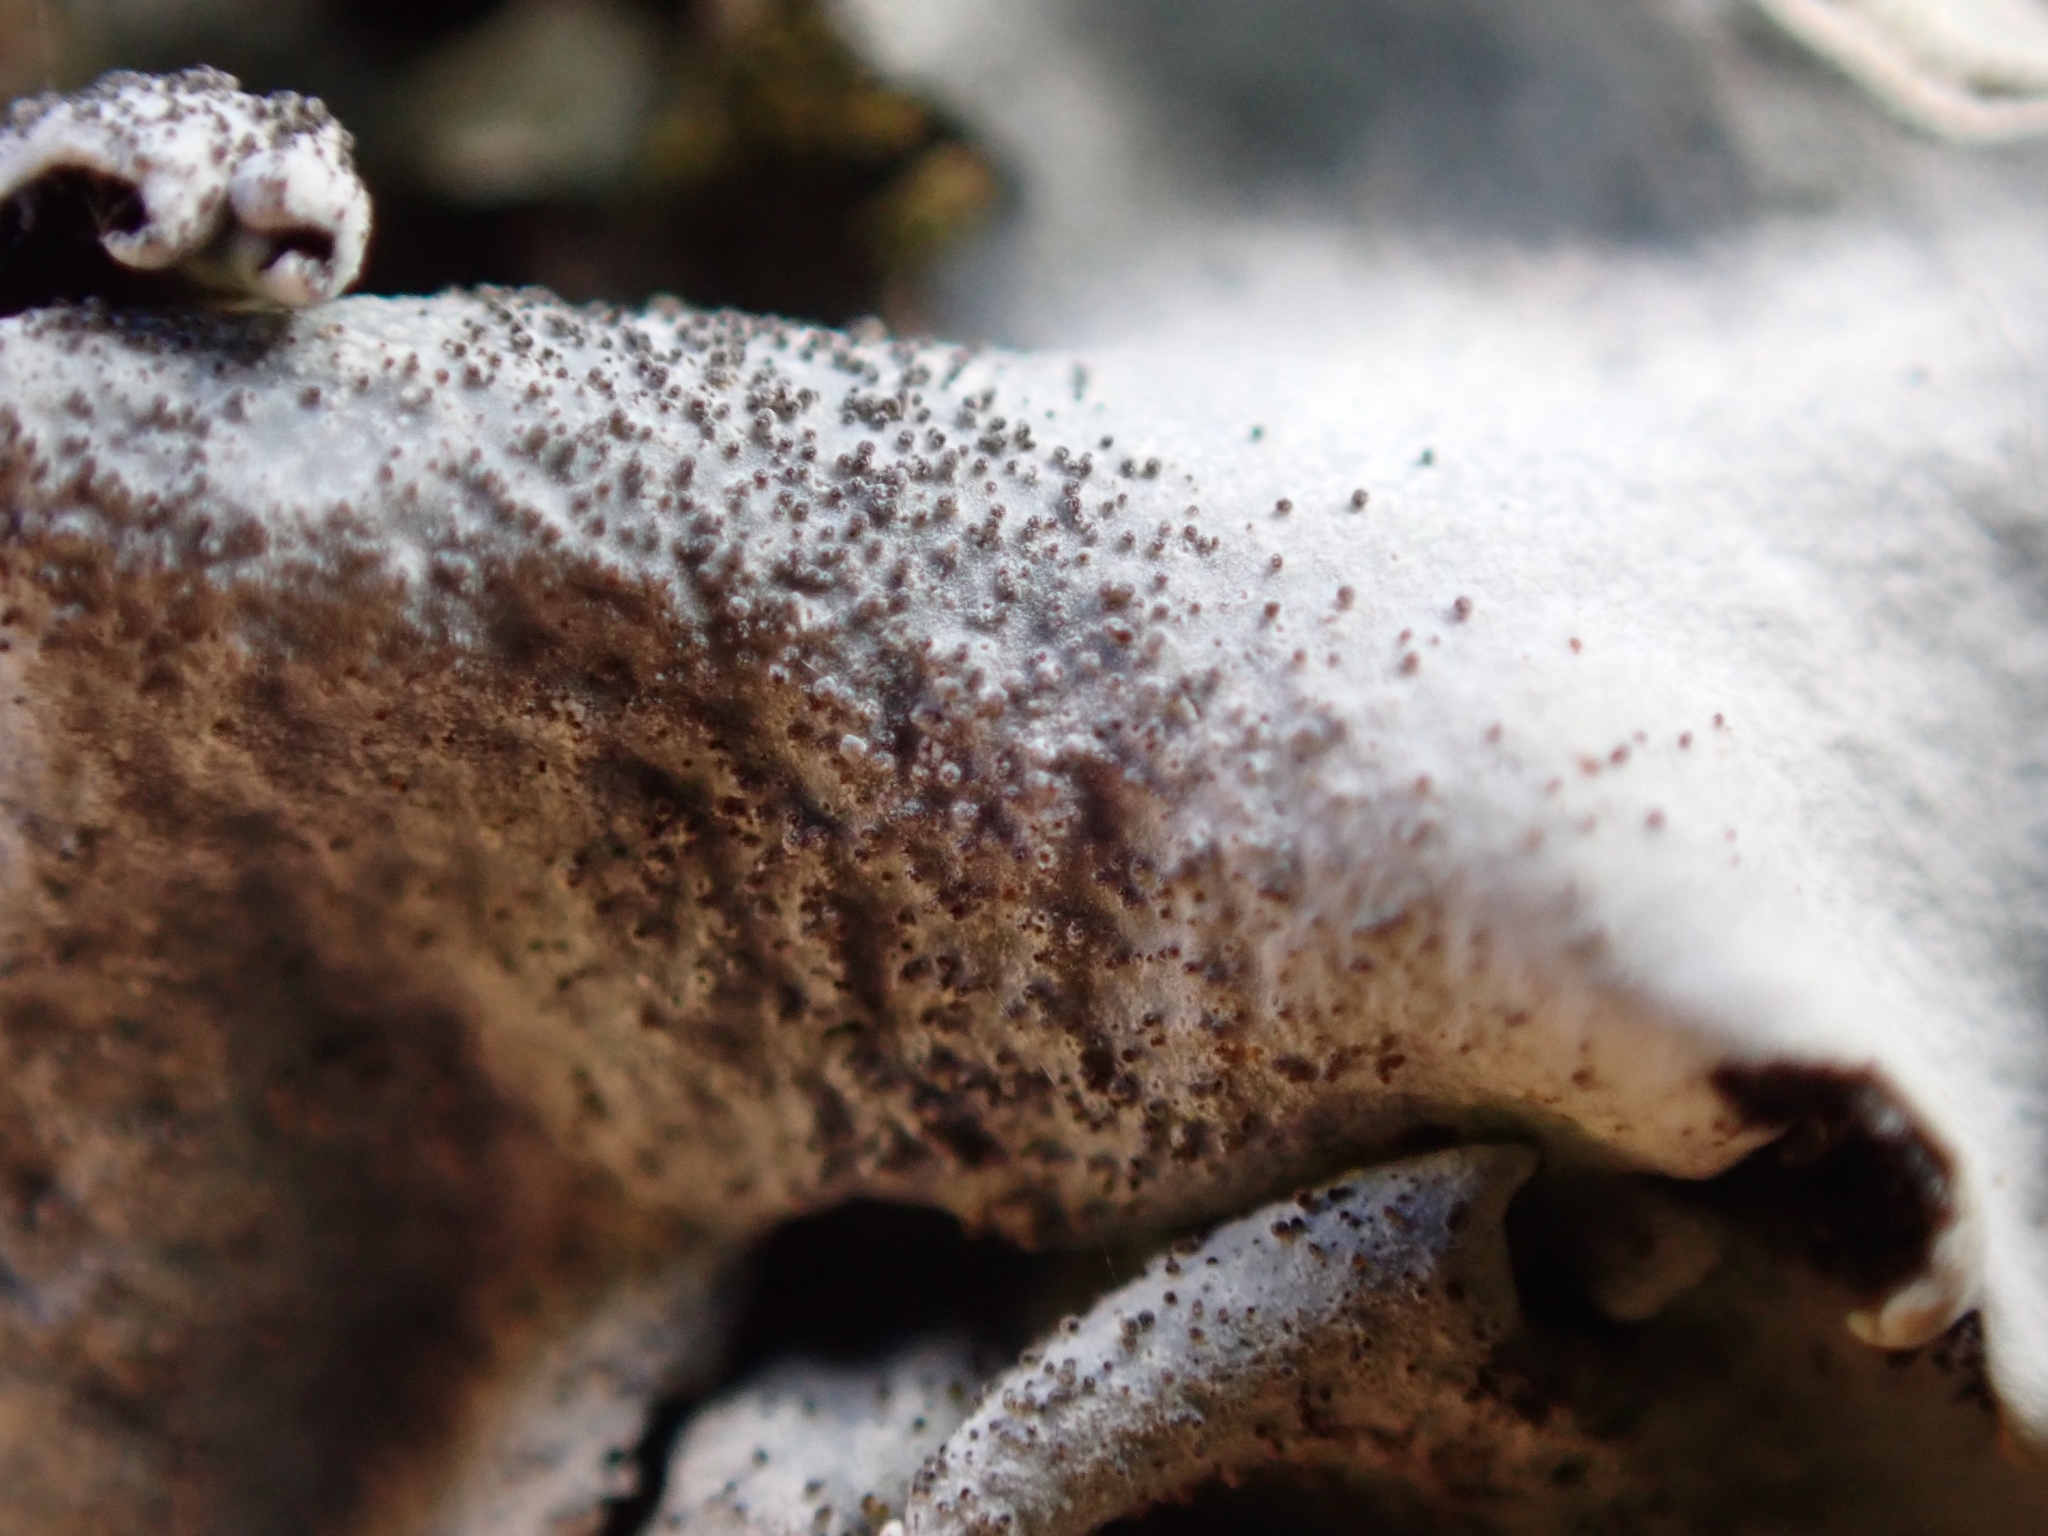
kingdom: Fungi
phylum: Ascomycota
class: Lecanoromycetes
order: Lecanorales
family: Parmeliaceae
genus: Parmelina
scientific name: Parmelina tiliacea
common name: Linden shield lichen
